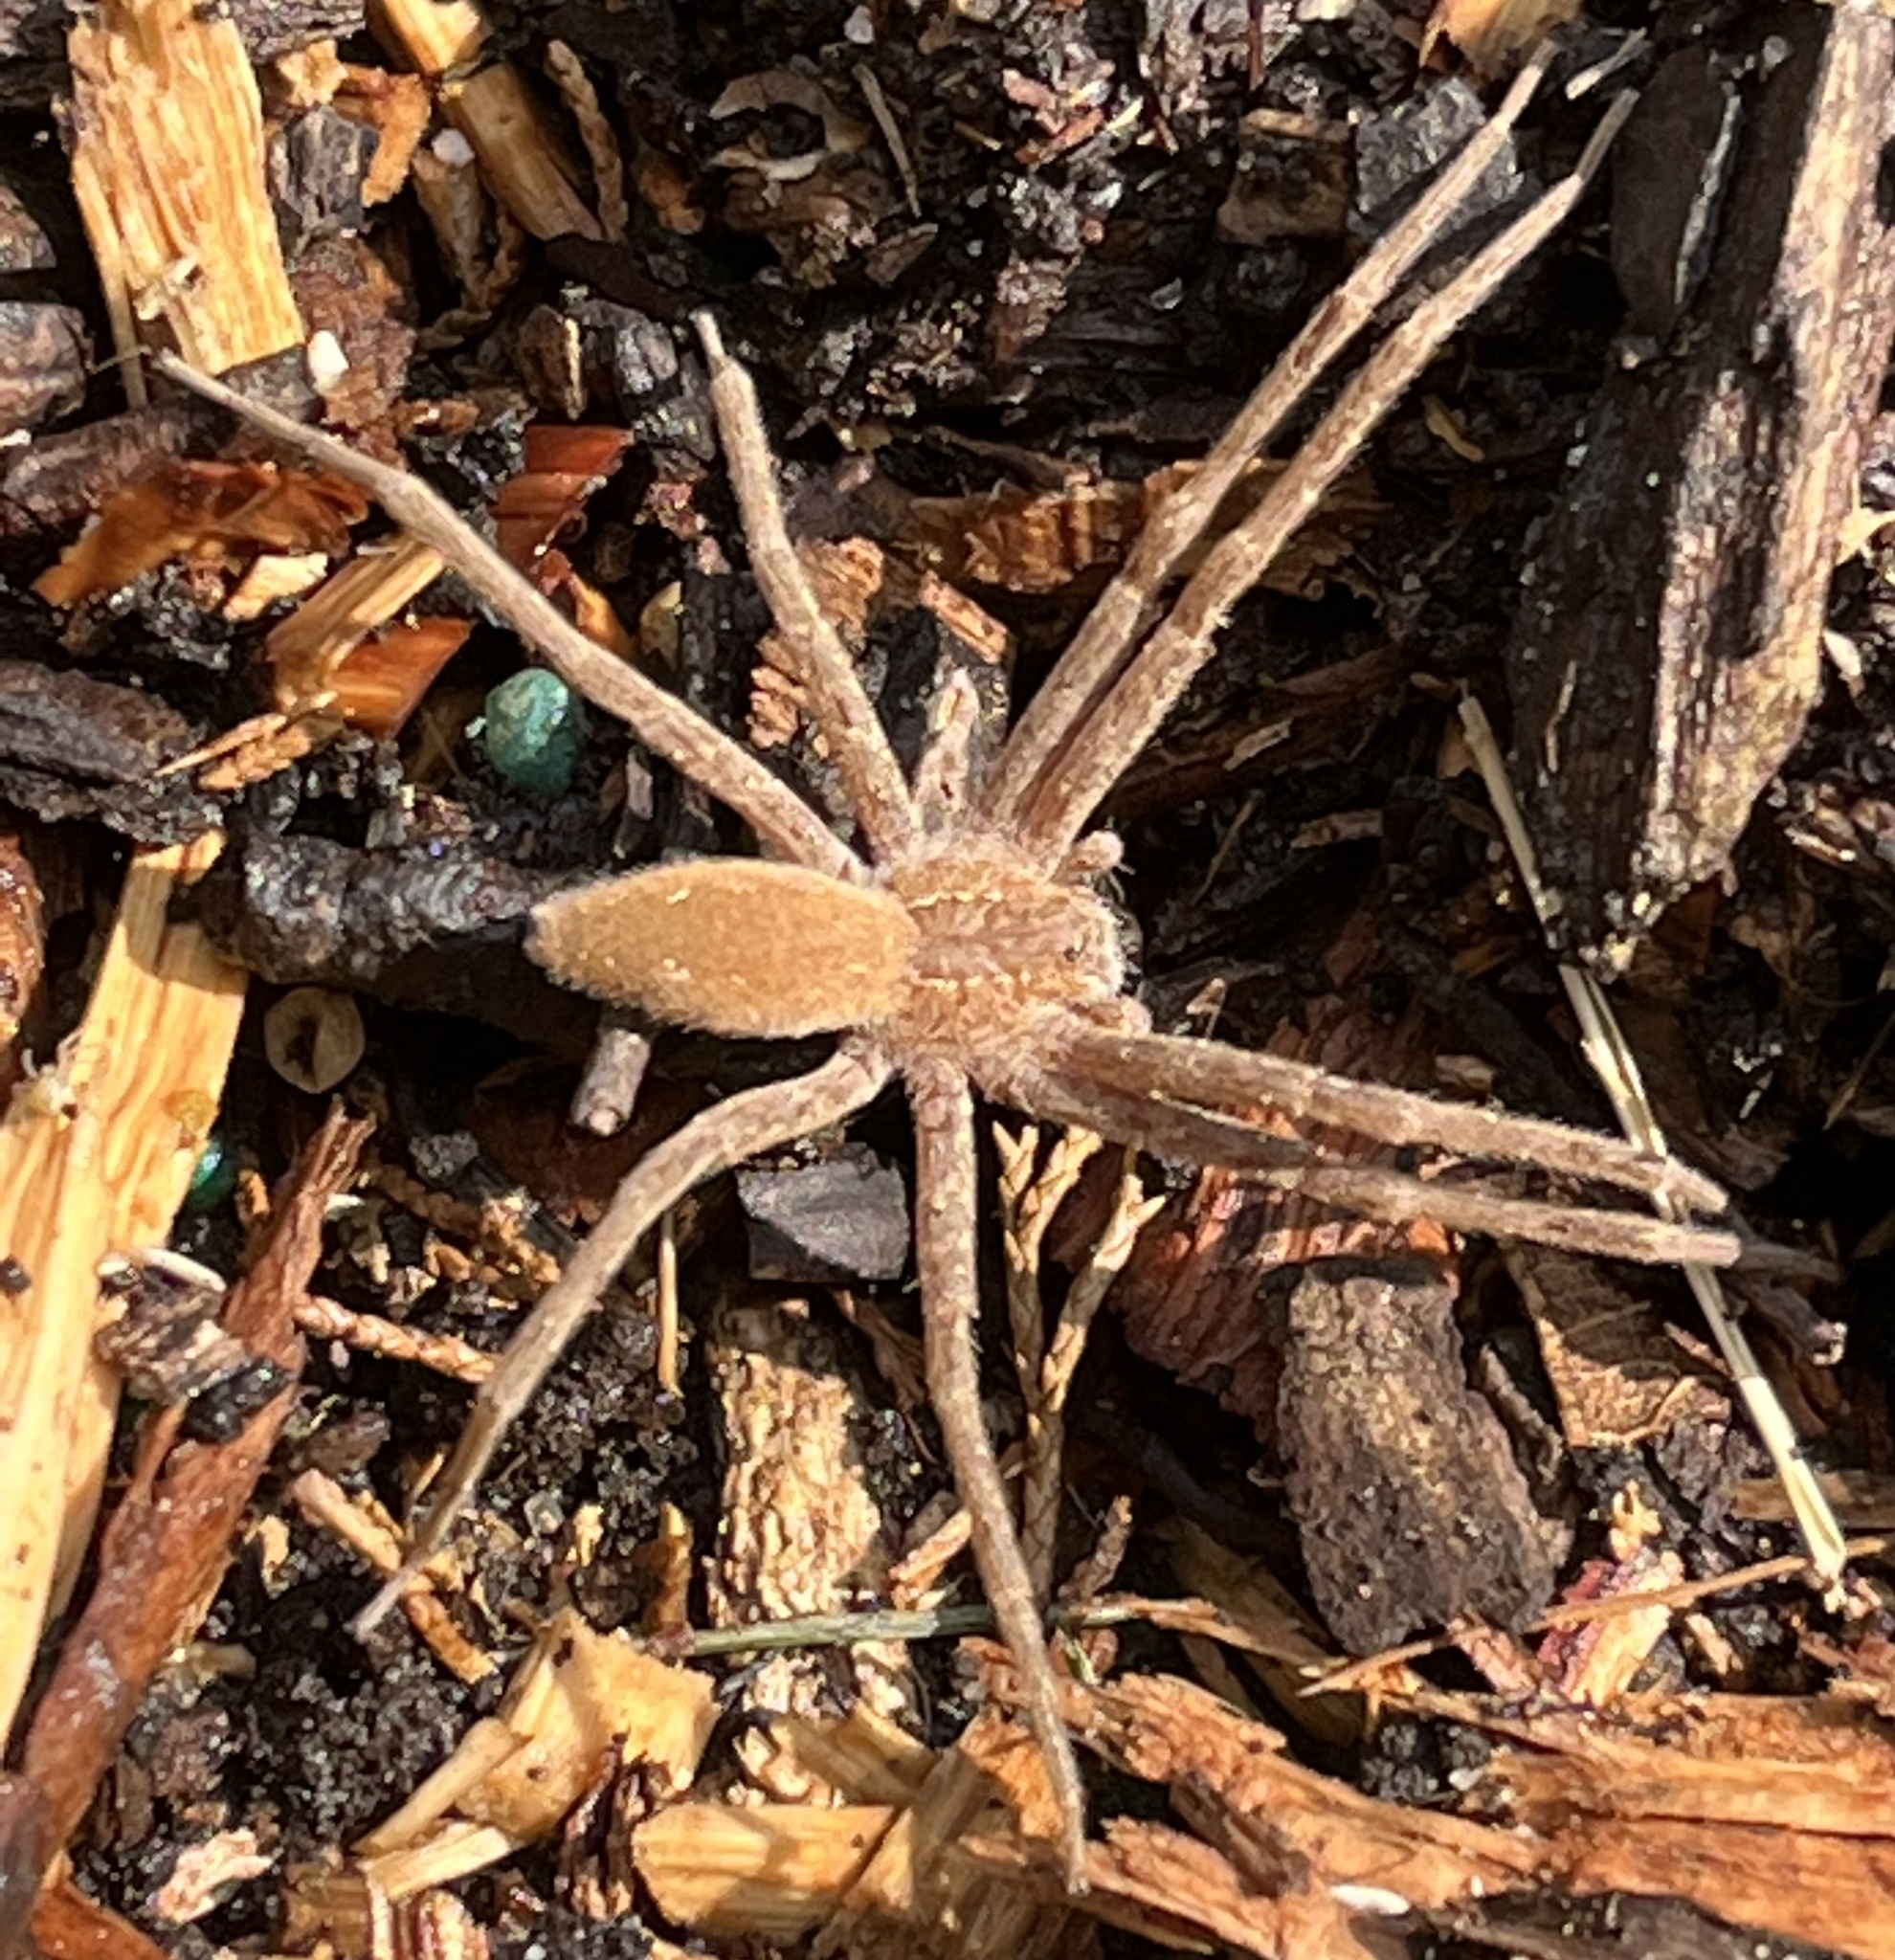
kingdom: Animalia
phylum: Arthropoda
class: Arachnida
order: Araneae
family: Pisauridae
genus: Pisaurina
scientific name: Pisaurina mira
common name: American nursery web spider
